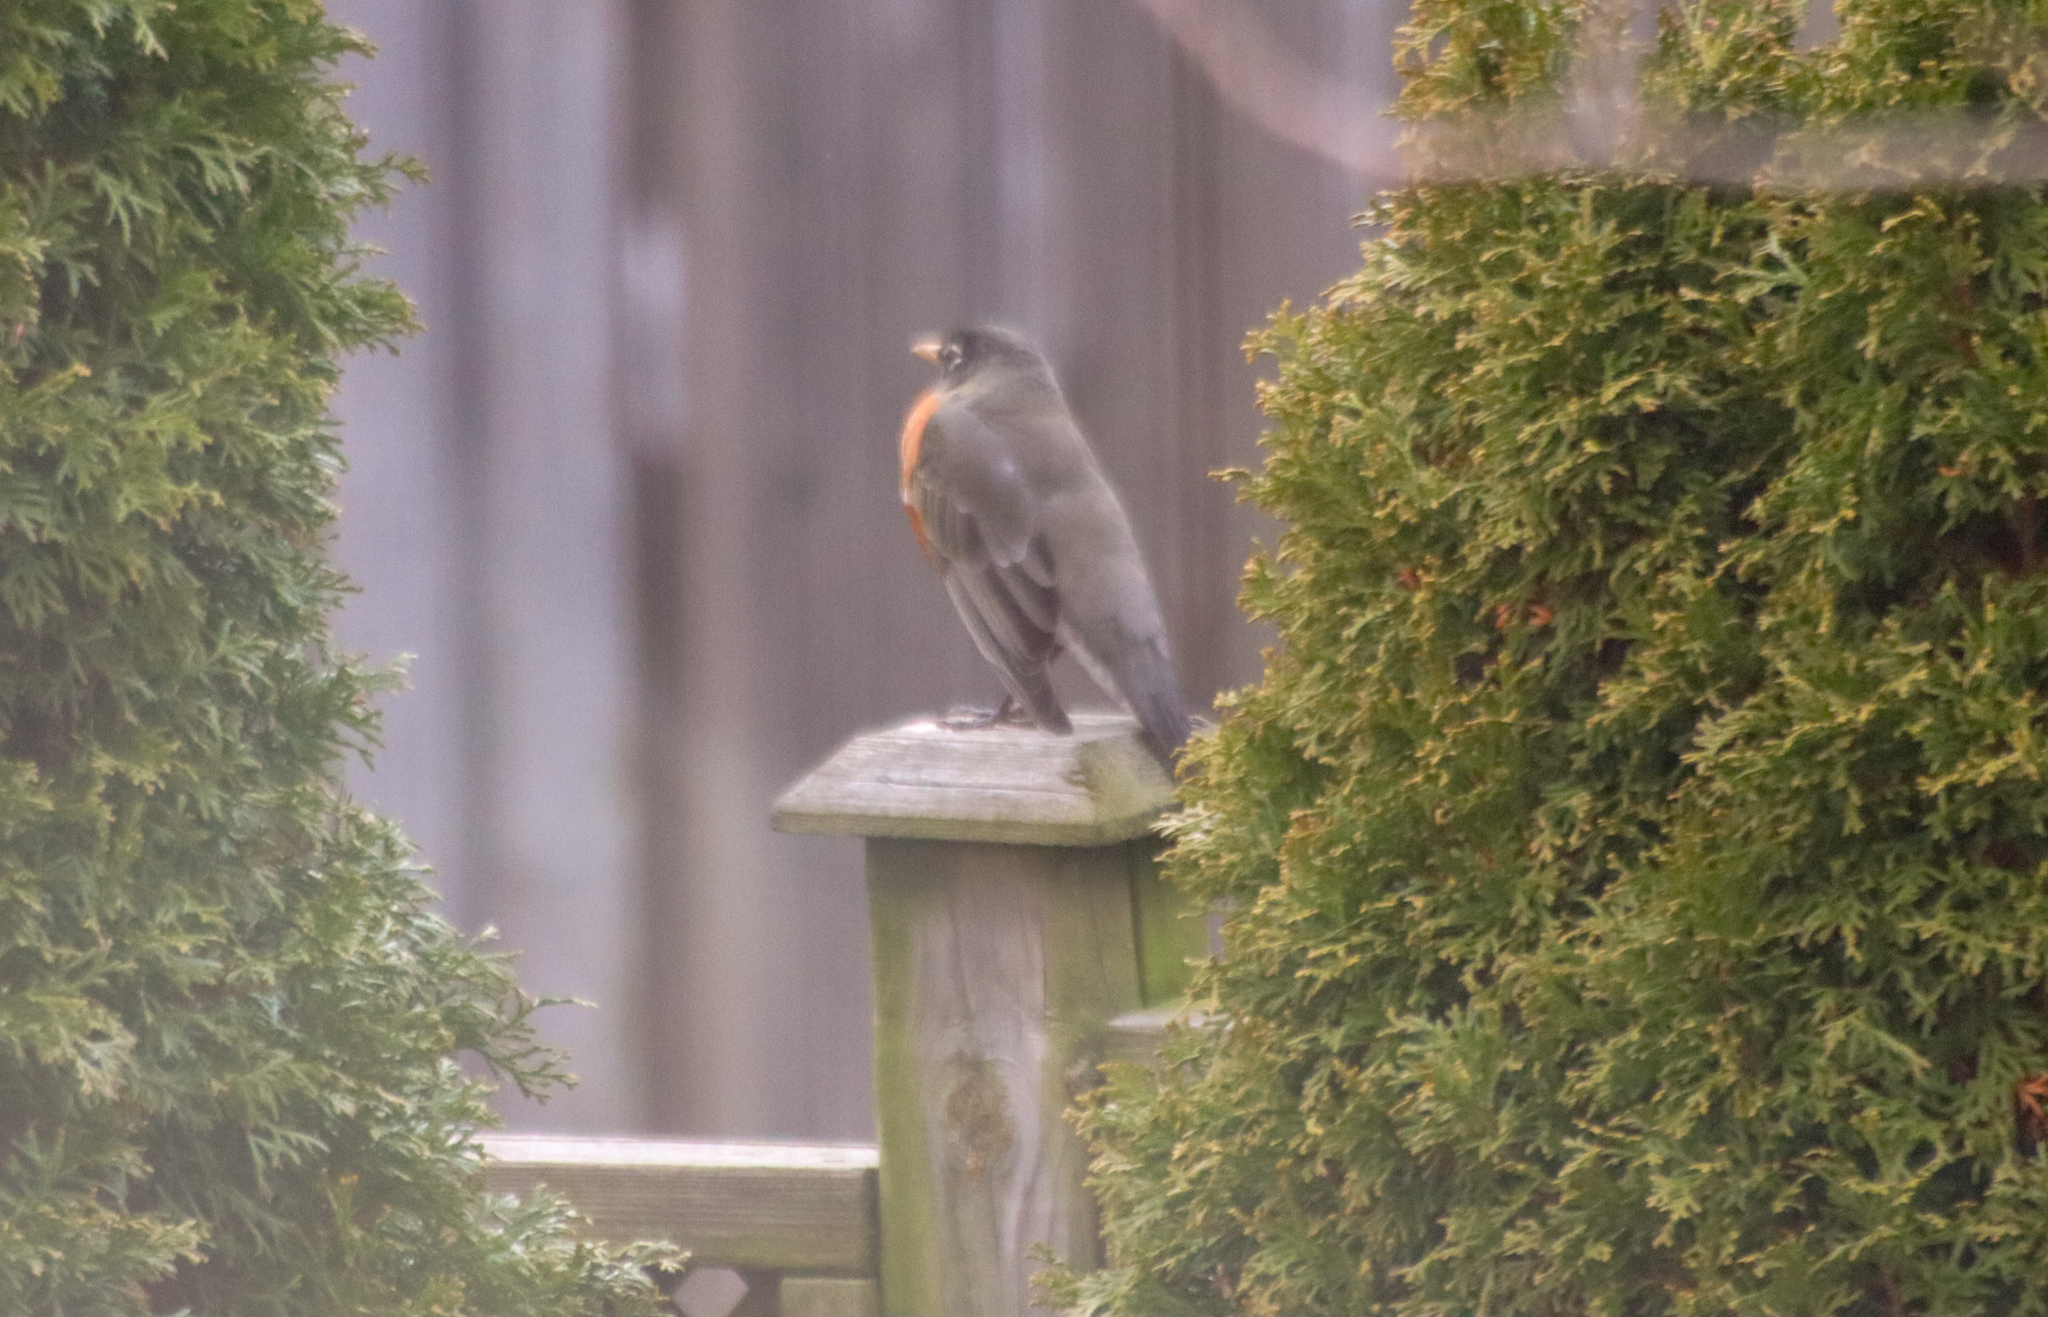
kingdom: Animalia
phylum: Chordata
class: Aves
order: Passeriformes
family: Turdidae
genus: Turdus
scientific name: Turdus migratorius
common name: American robin
